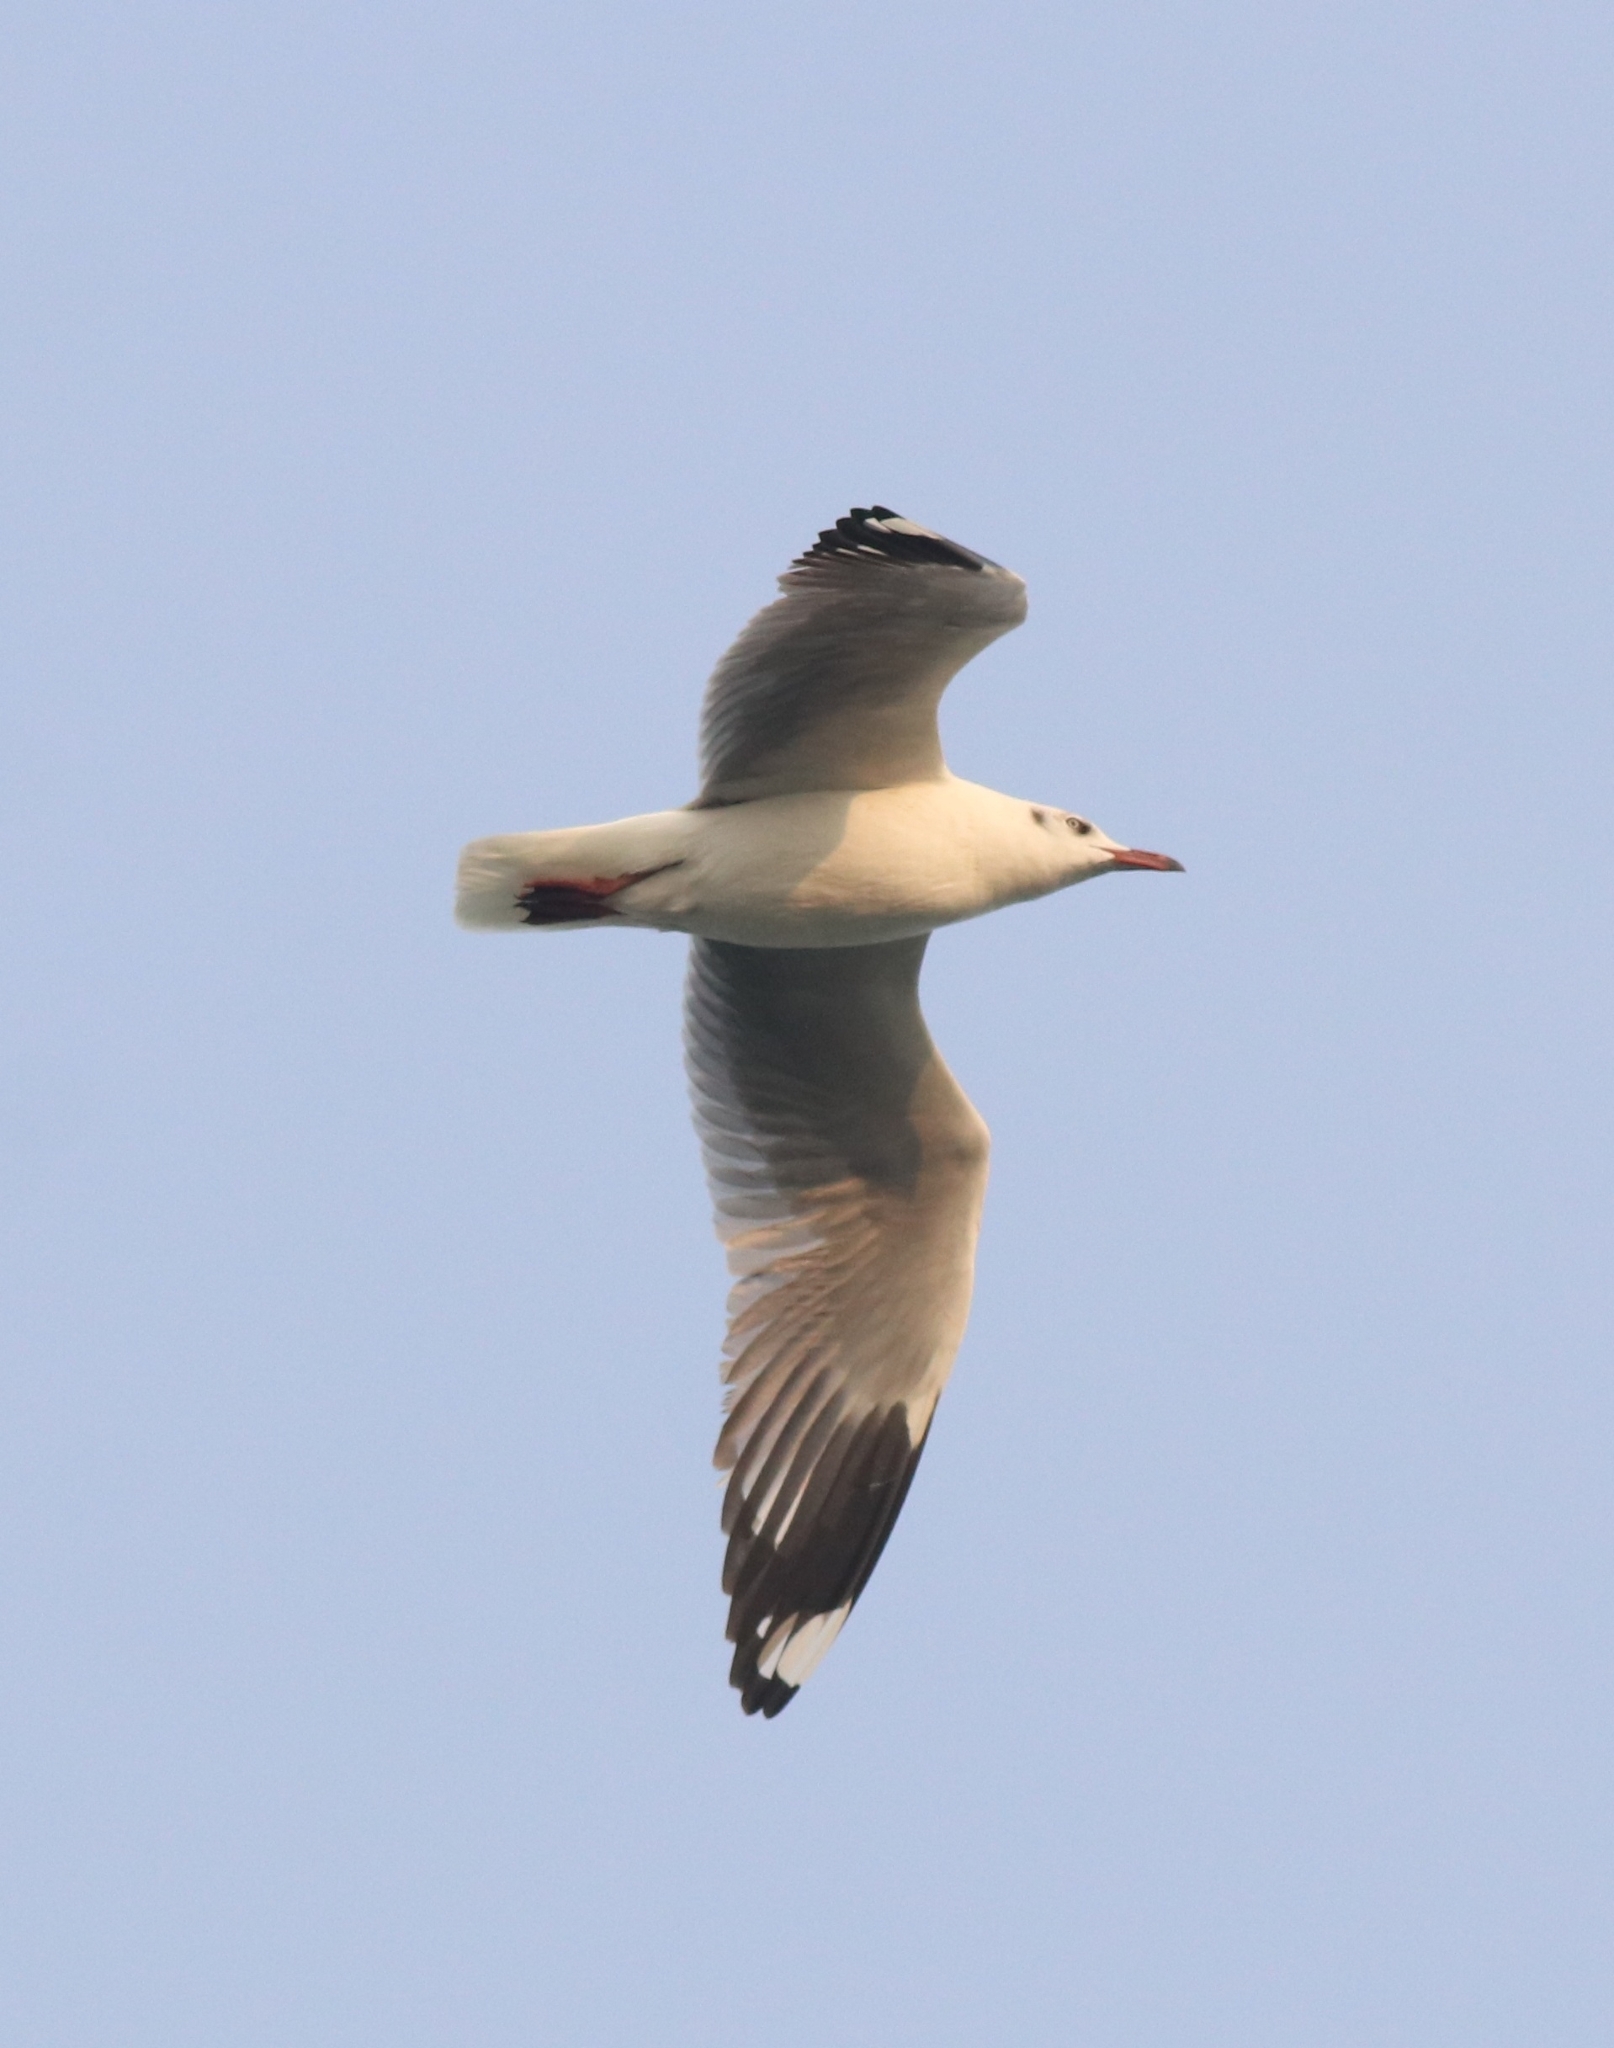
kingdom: Animalia
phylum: Chordata
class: Aves
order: Charadriiformes
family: Laridae
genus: Chroicocephalus
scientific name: Chroicocephalus brunnicephalus
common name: Brown-headed gull
